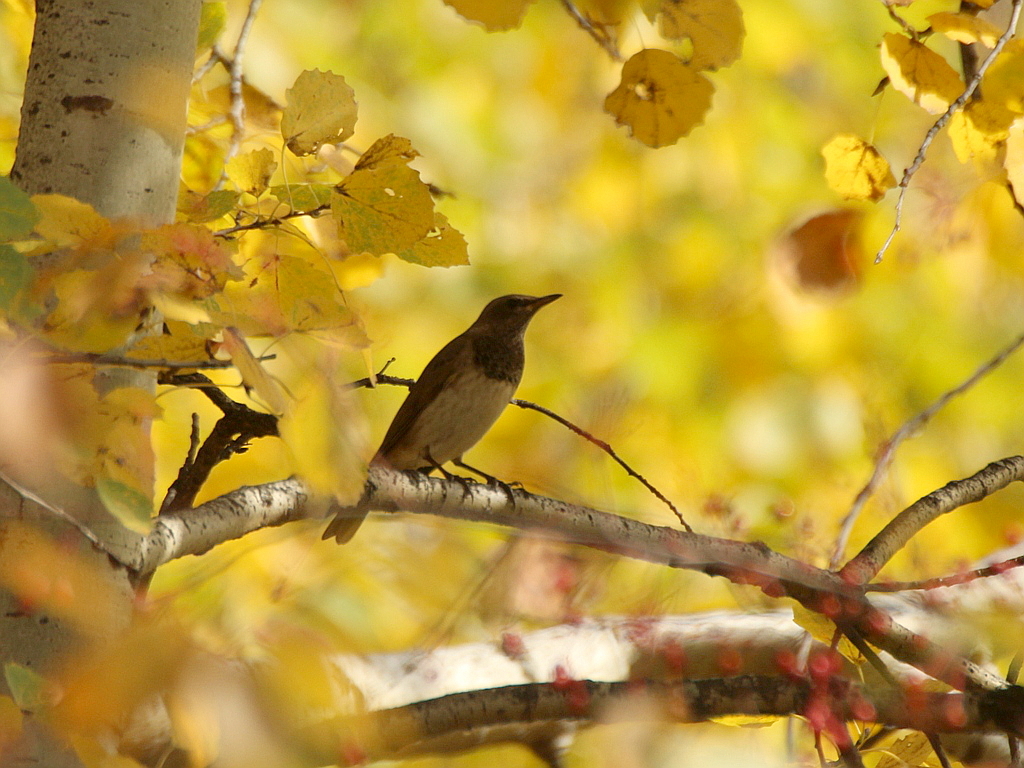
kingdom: Animalia
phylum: Chordata
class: Aves
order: Passeriformes
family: Turdidae
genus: Turdus
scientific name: Turdus atrogularis
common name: Black-throated thrush
